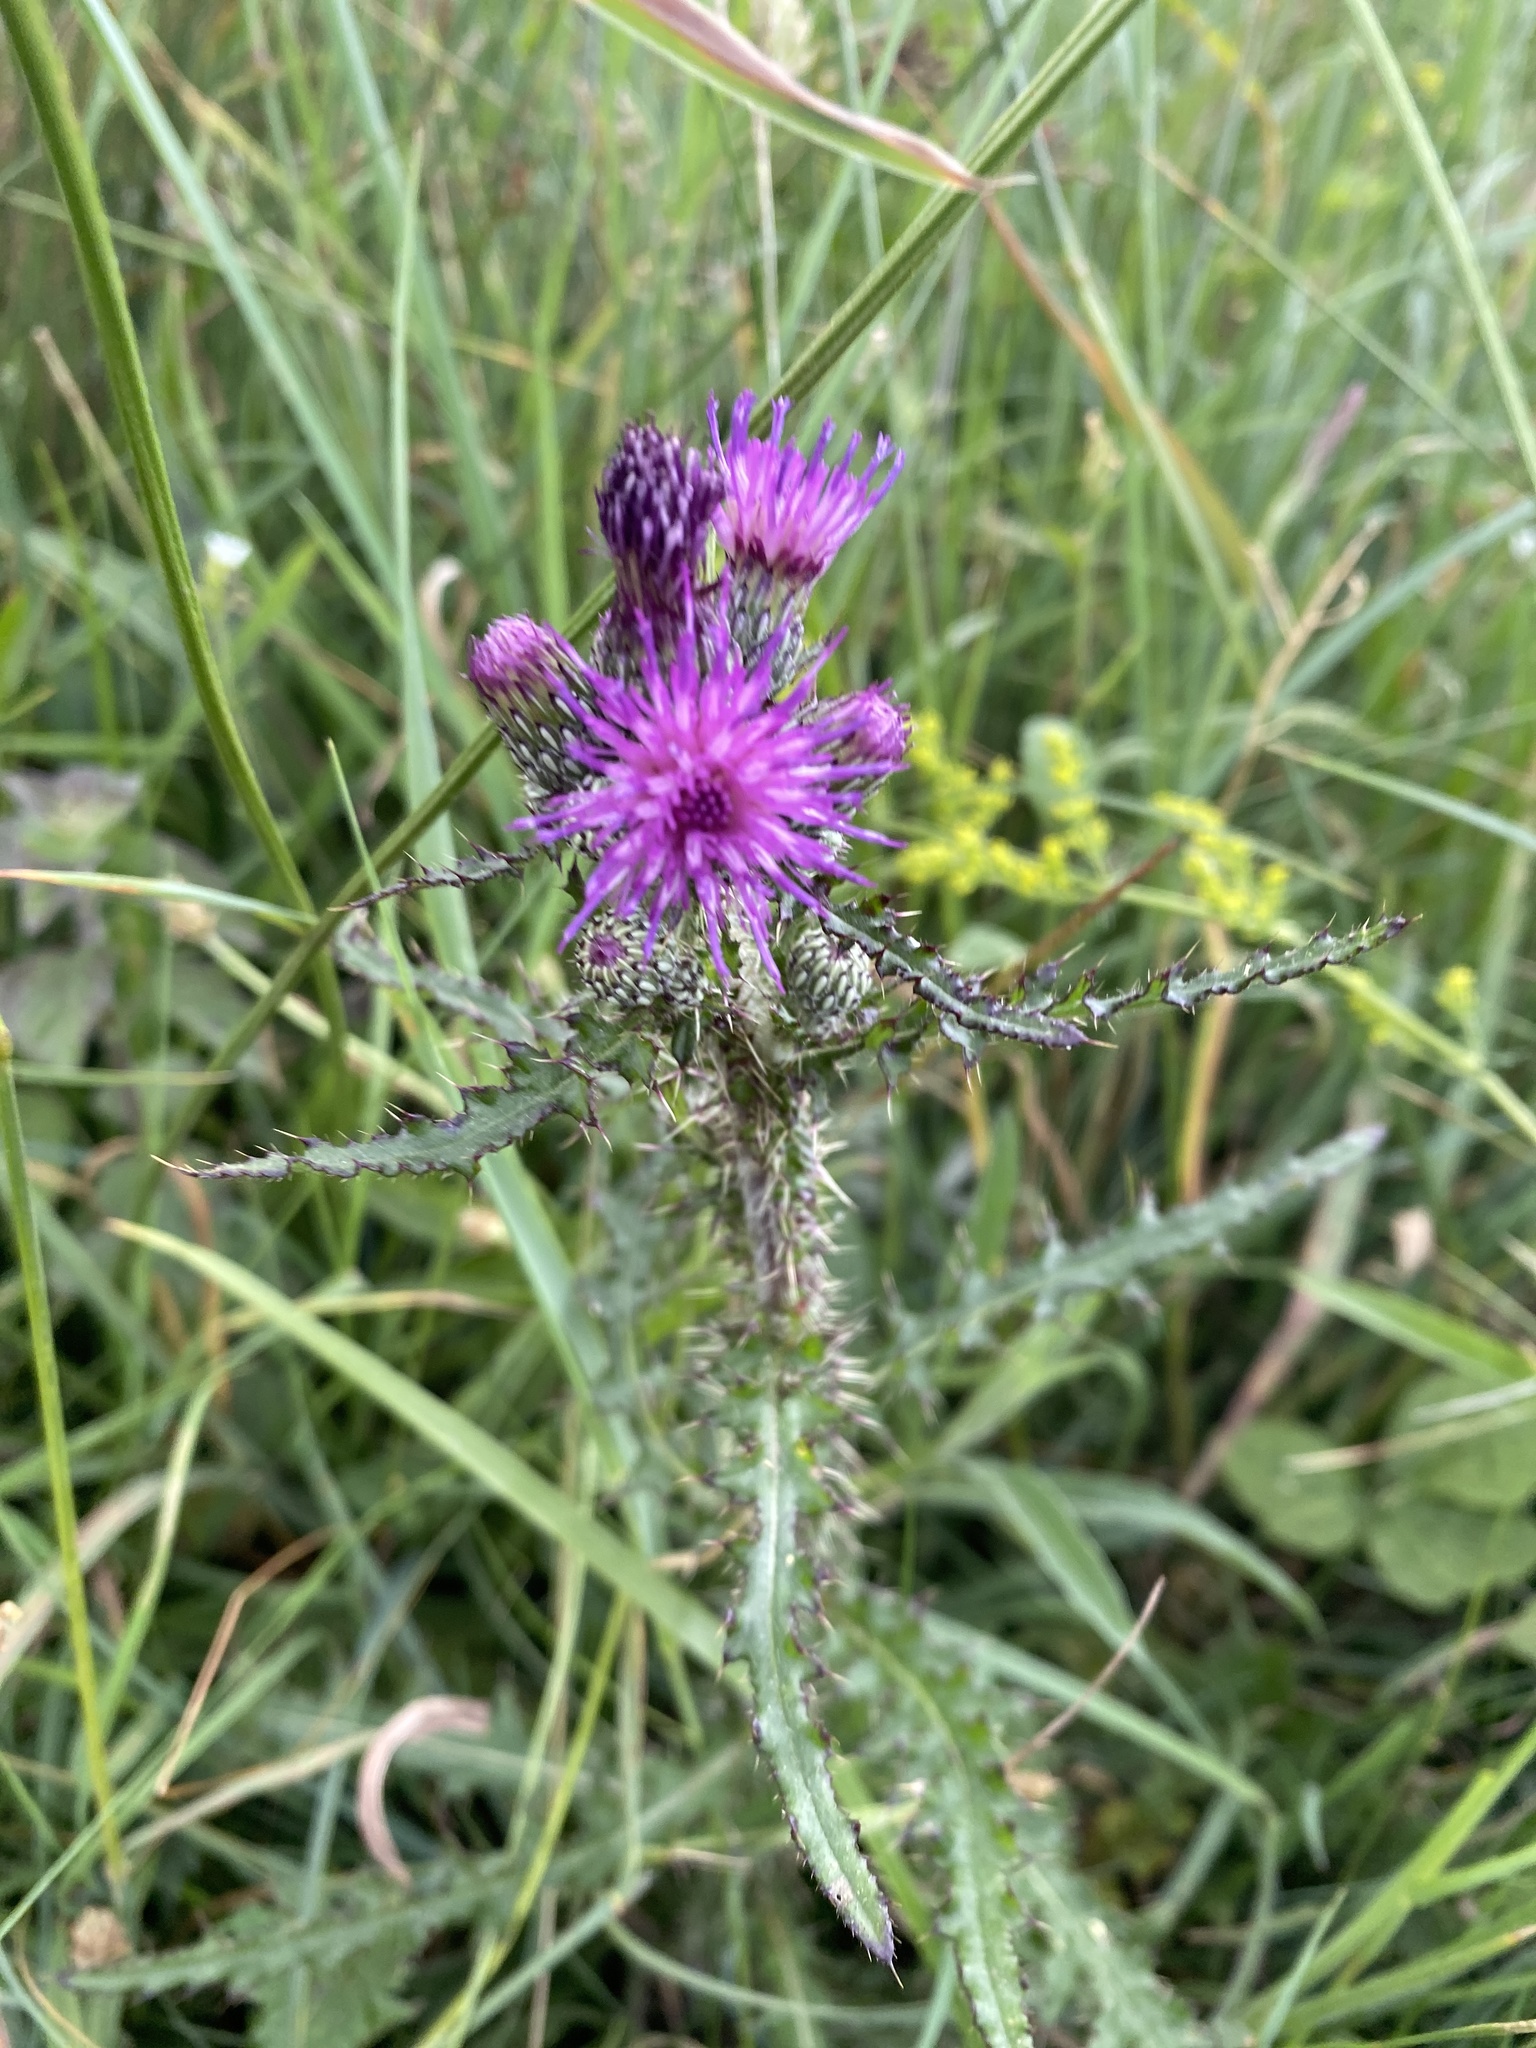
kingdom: Plantae
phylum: Tracheophyta
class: Magnoliopsida
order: Asterales
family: Asteraceae
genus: Cirsium
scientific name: Cirsium palustre
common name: Marsh thistle
